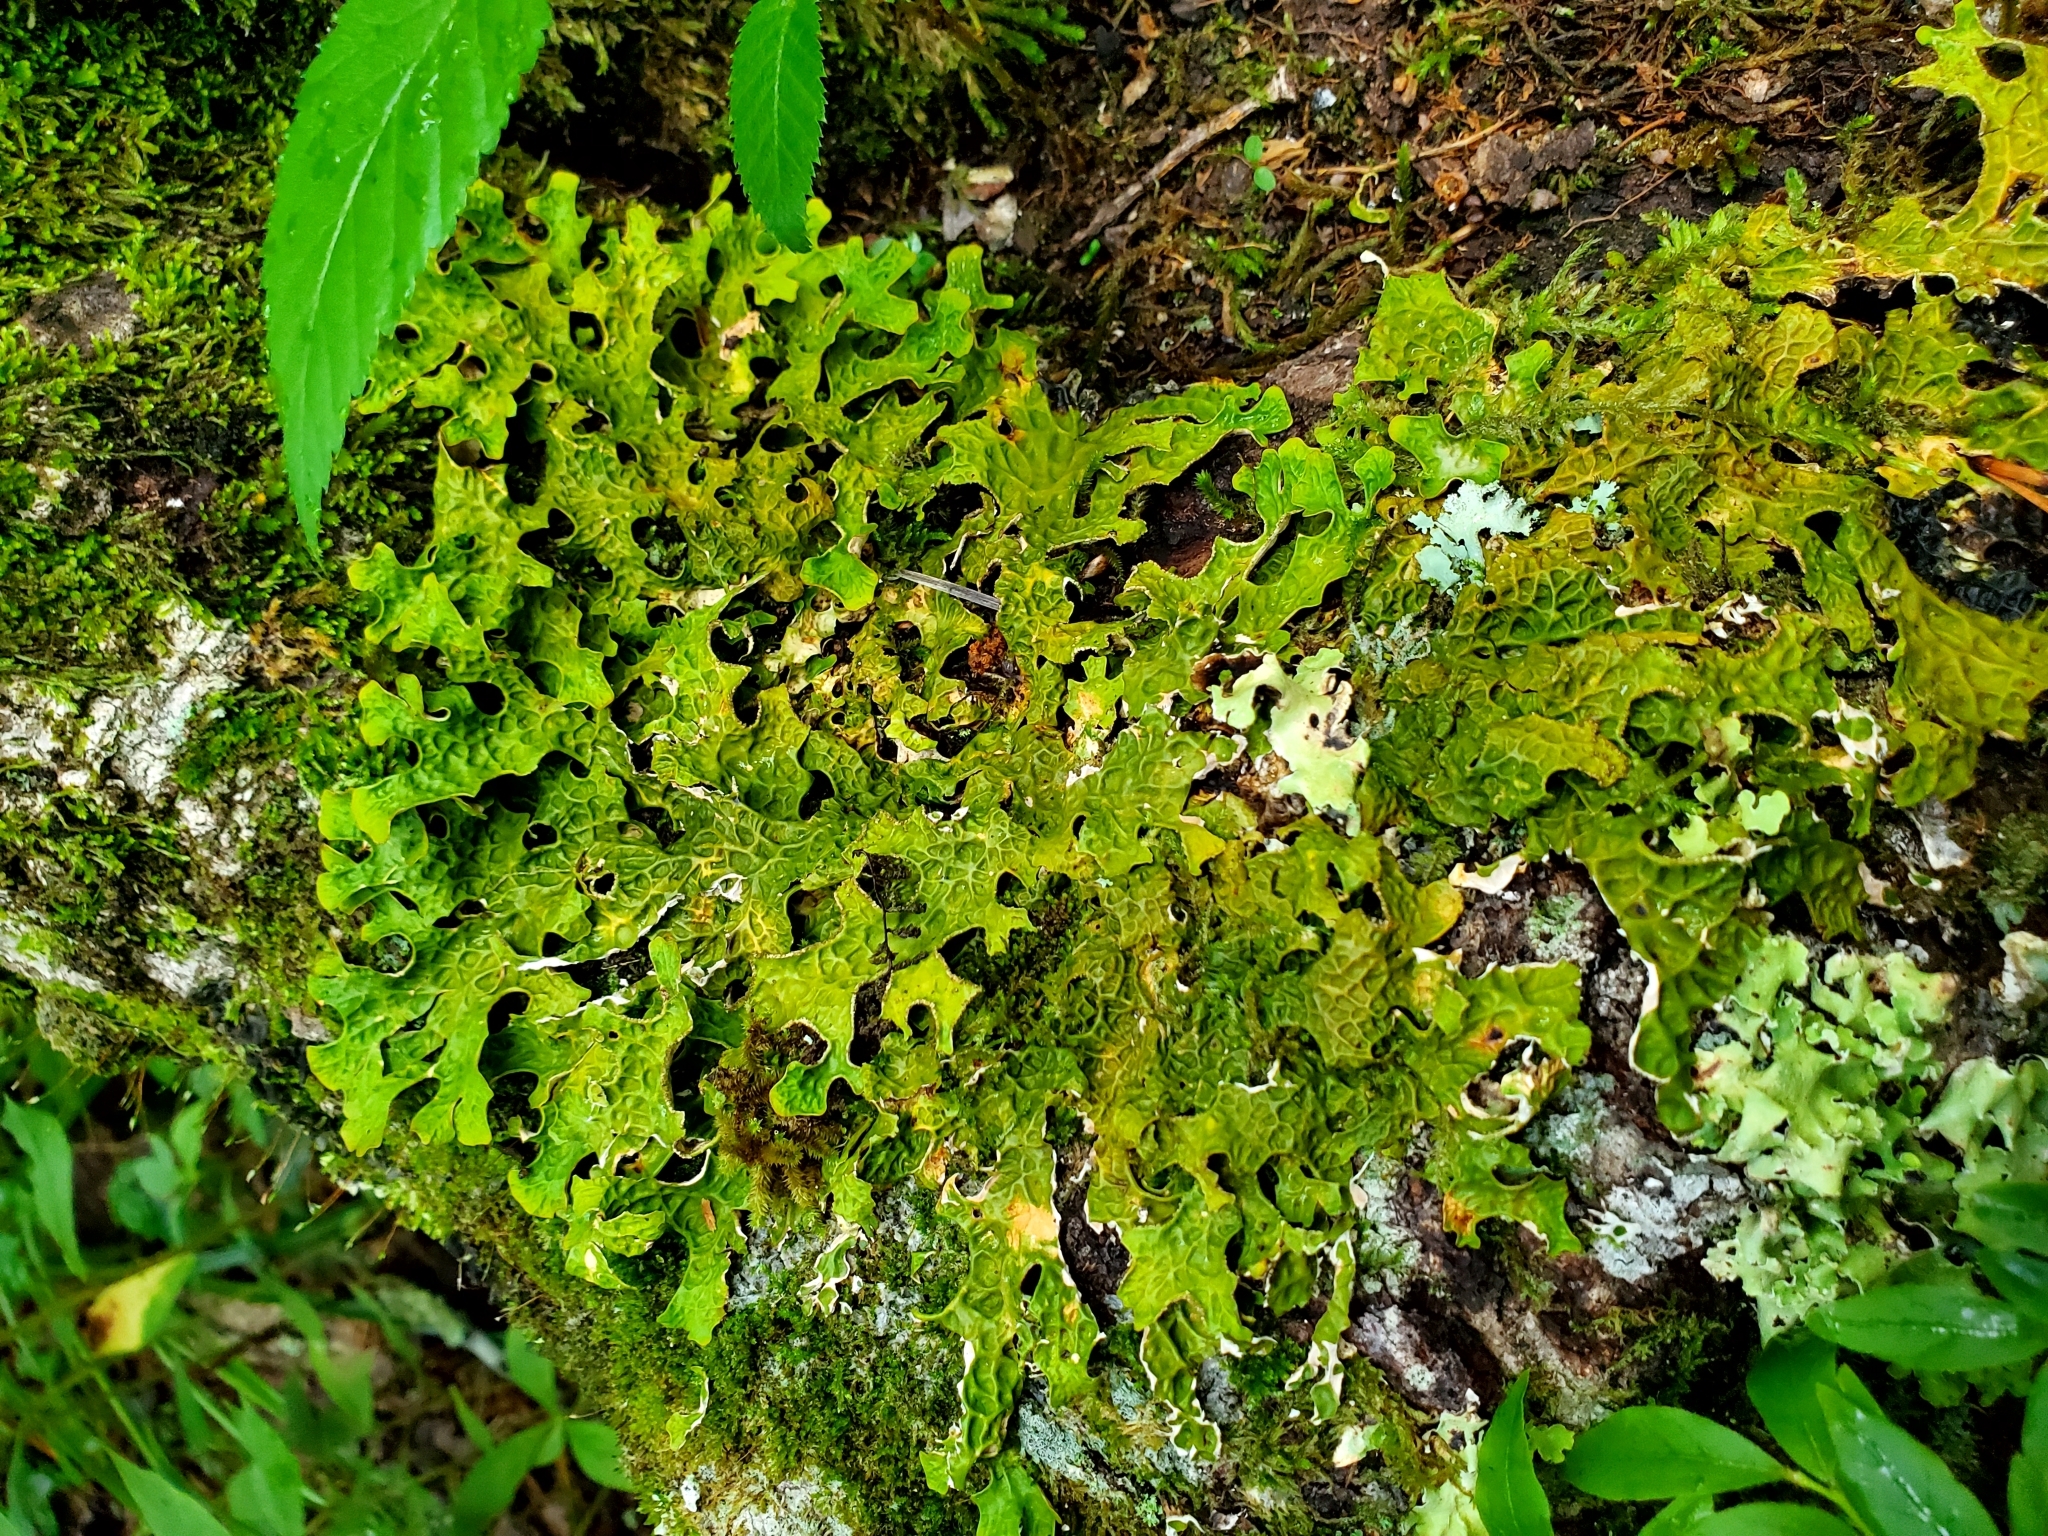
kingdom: Fungi
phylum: Ascomycota
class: Lecanoromycetes
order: Peltigerales
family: Lobariaceae
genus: Lobaria
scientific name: Lobaria pulmonaria
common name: Lungwort
